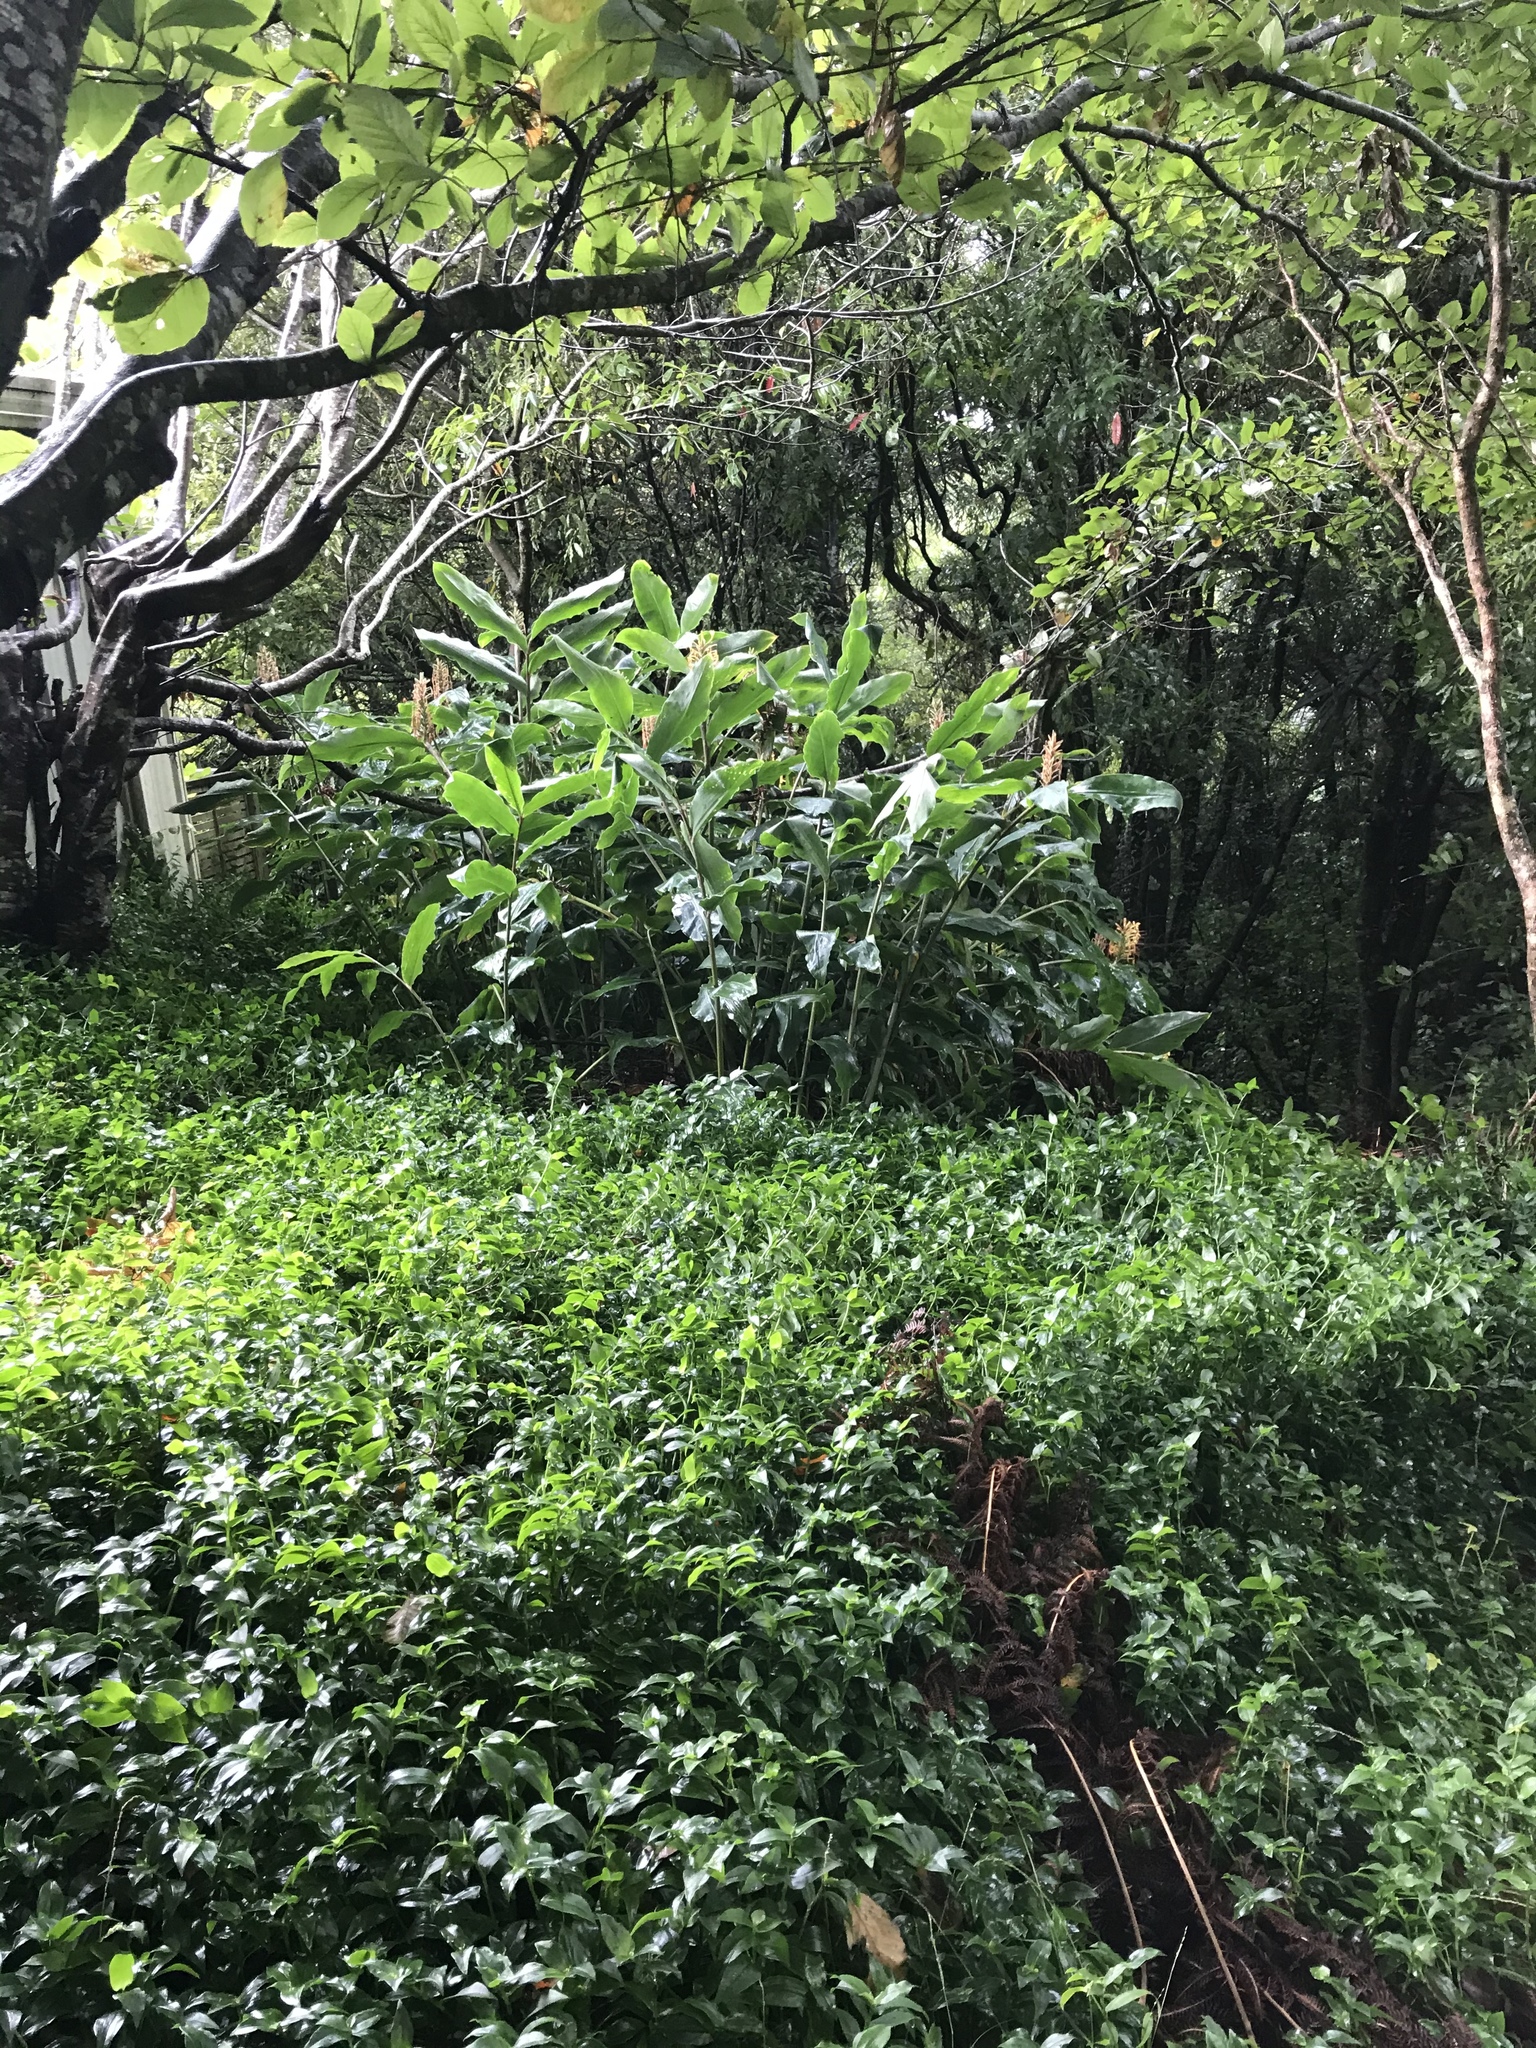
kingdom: Plantae
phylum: Tracheophyta
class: Liliopsida
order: Zingiberales
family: Zingiberaceae
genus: Hedychium
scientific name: Hedychium gardnerianum
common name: Himalayan ginger
